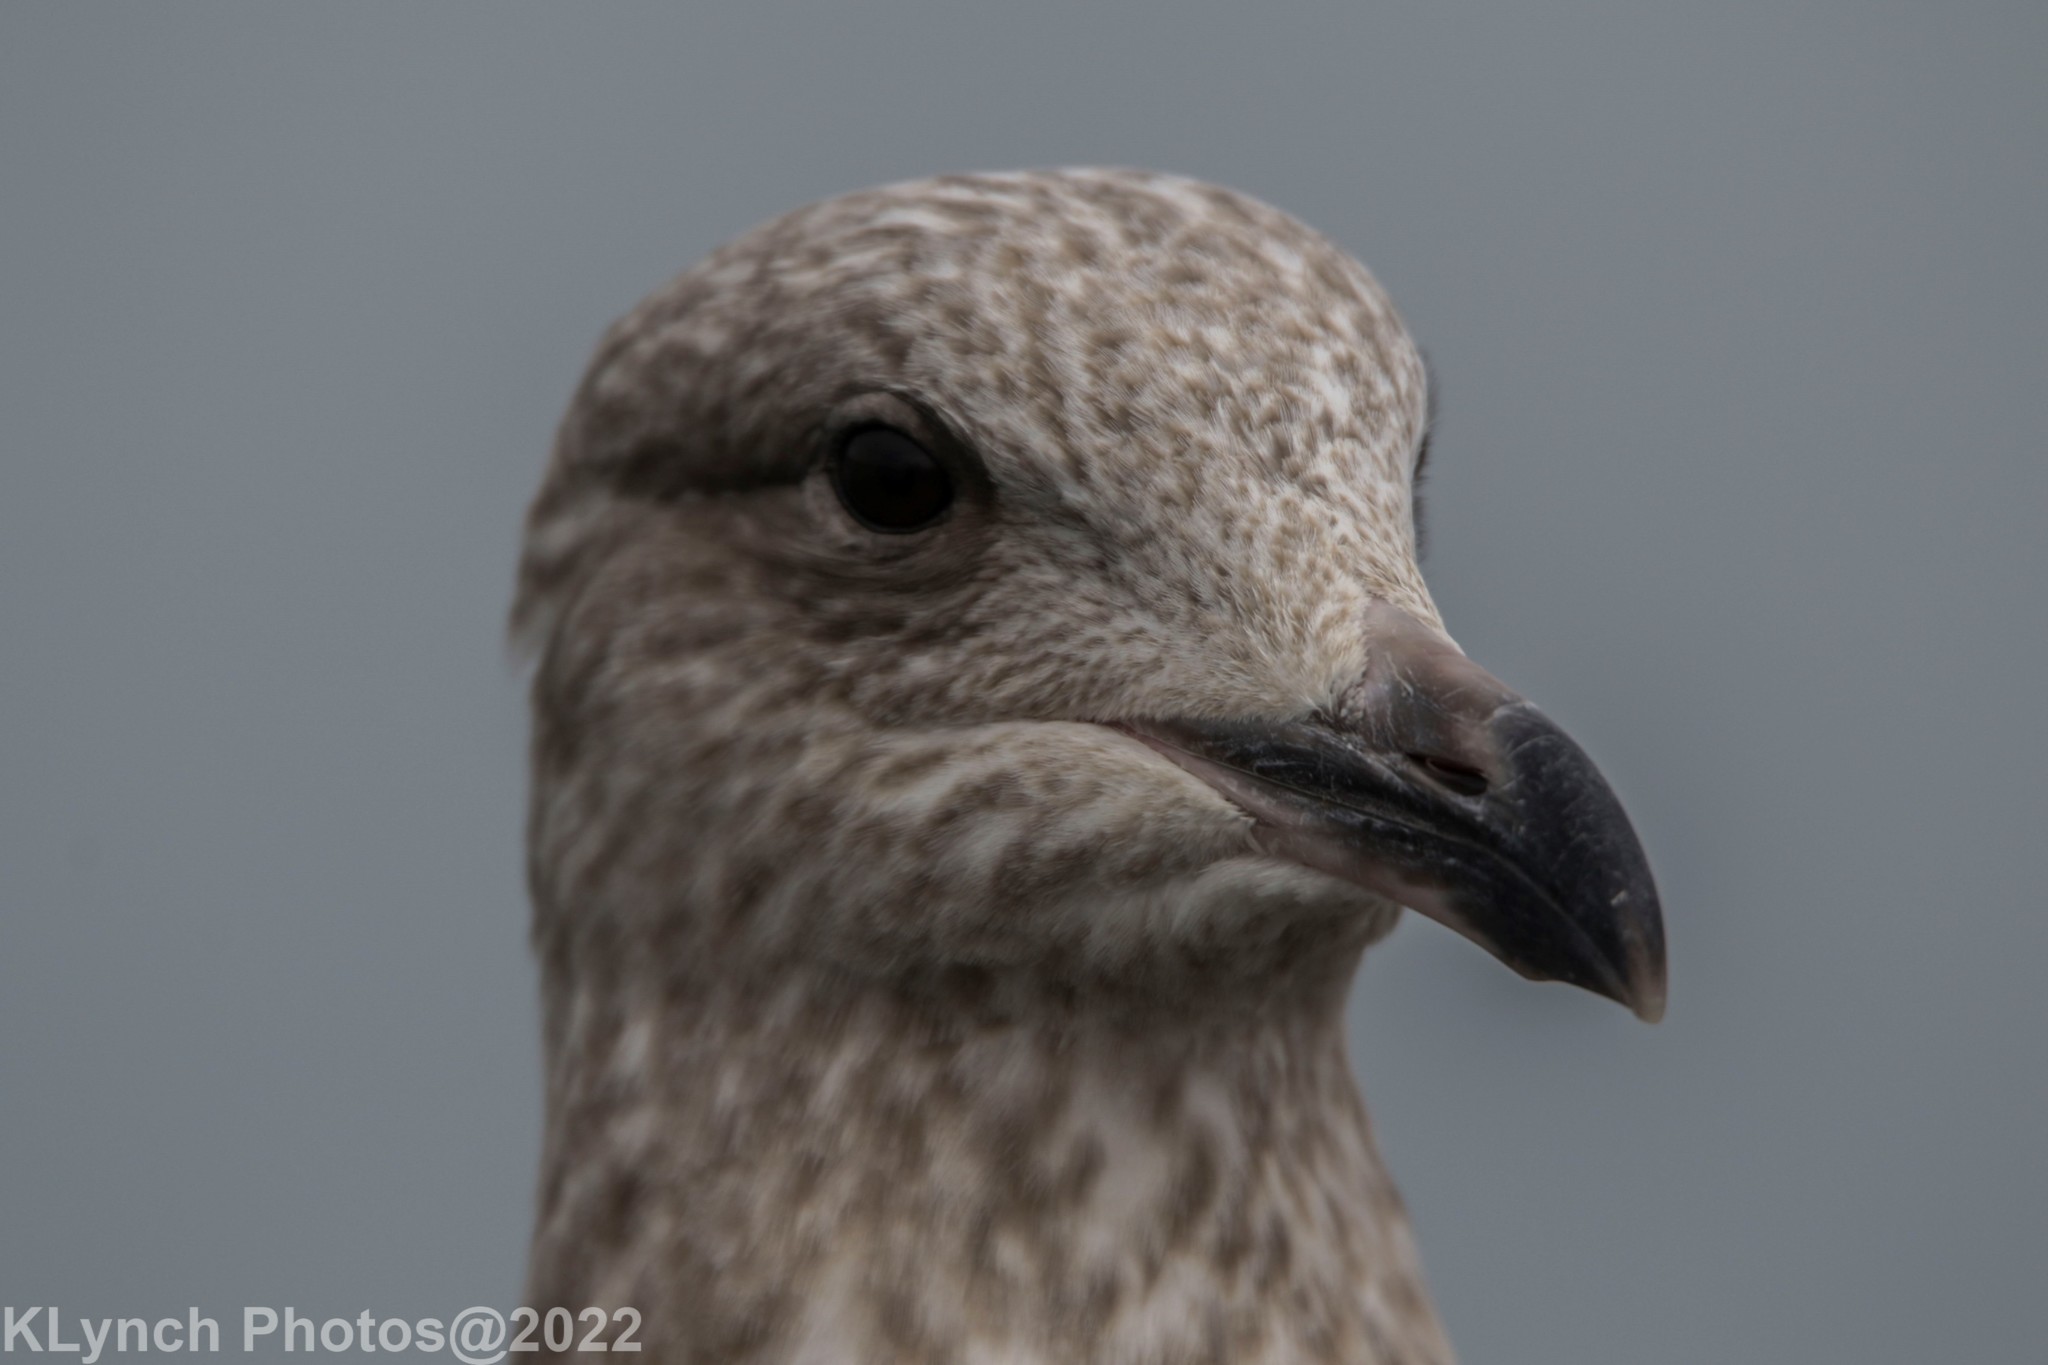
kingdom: Animalia
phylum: Chordata
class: Aves
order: Charadriiformes
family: Laridae
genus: Larus
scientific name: Larus argentatus
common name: Herring gull
